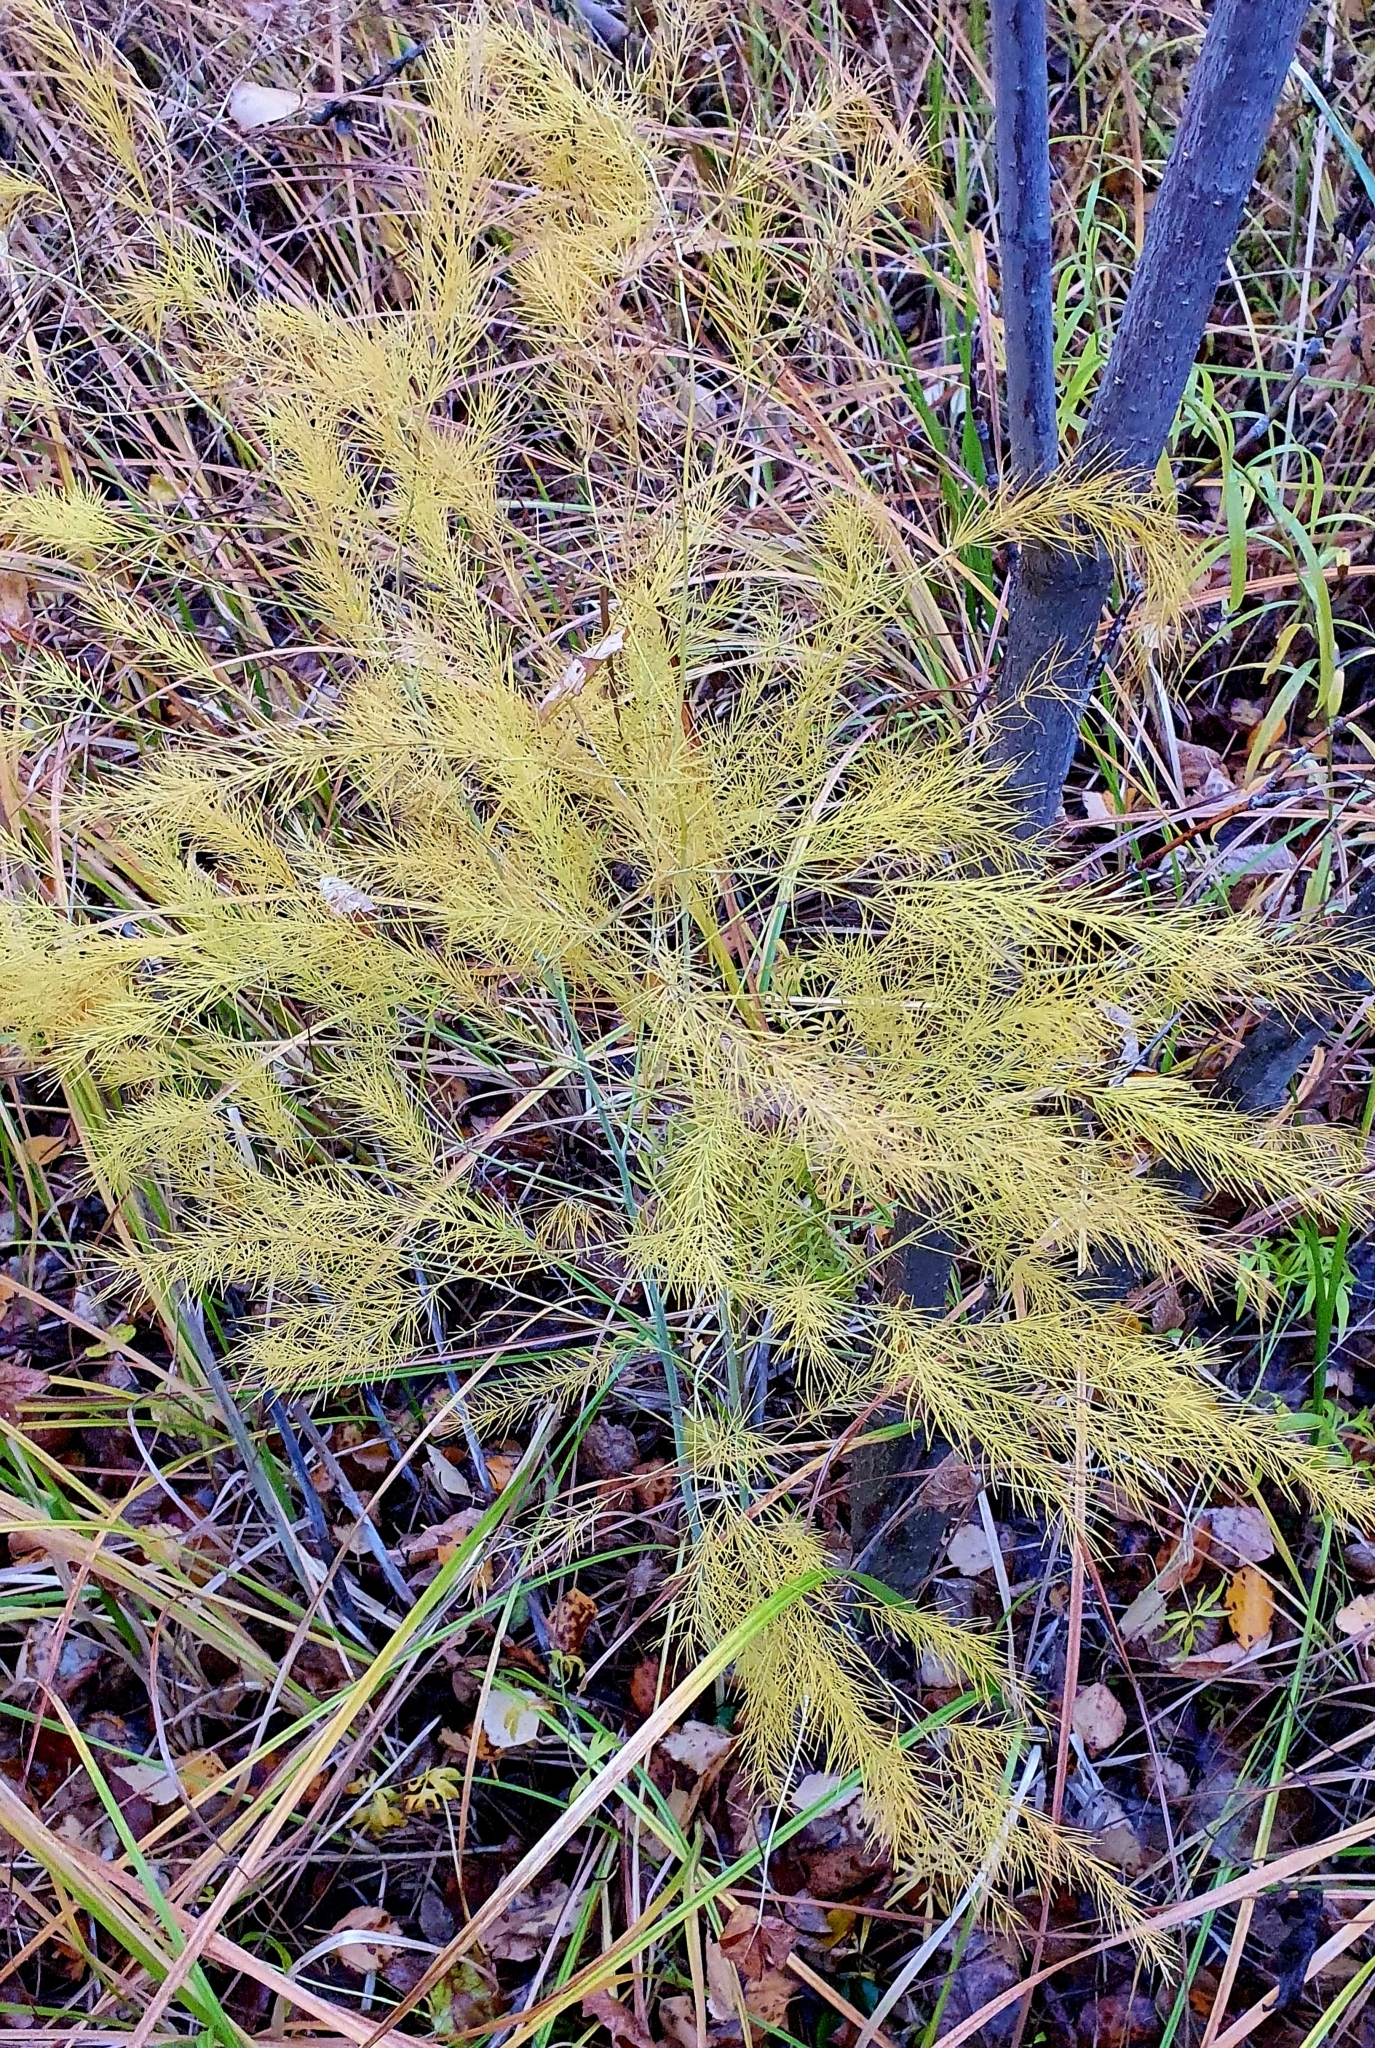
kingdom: Plantae
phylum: Tracheophyta
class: Liliopsida
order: Asparagales
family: Asparagaceae
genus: Asparagus
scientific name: Asparagus officinalis
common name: Garden asparagus
